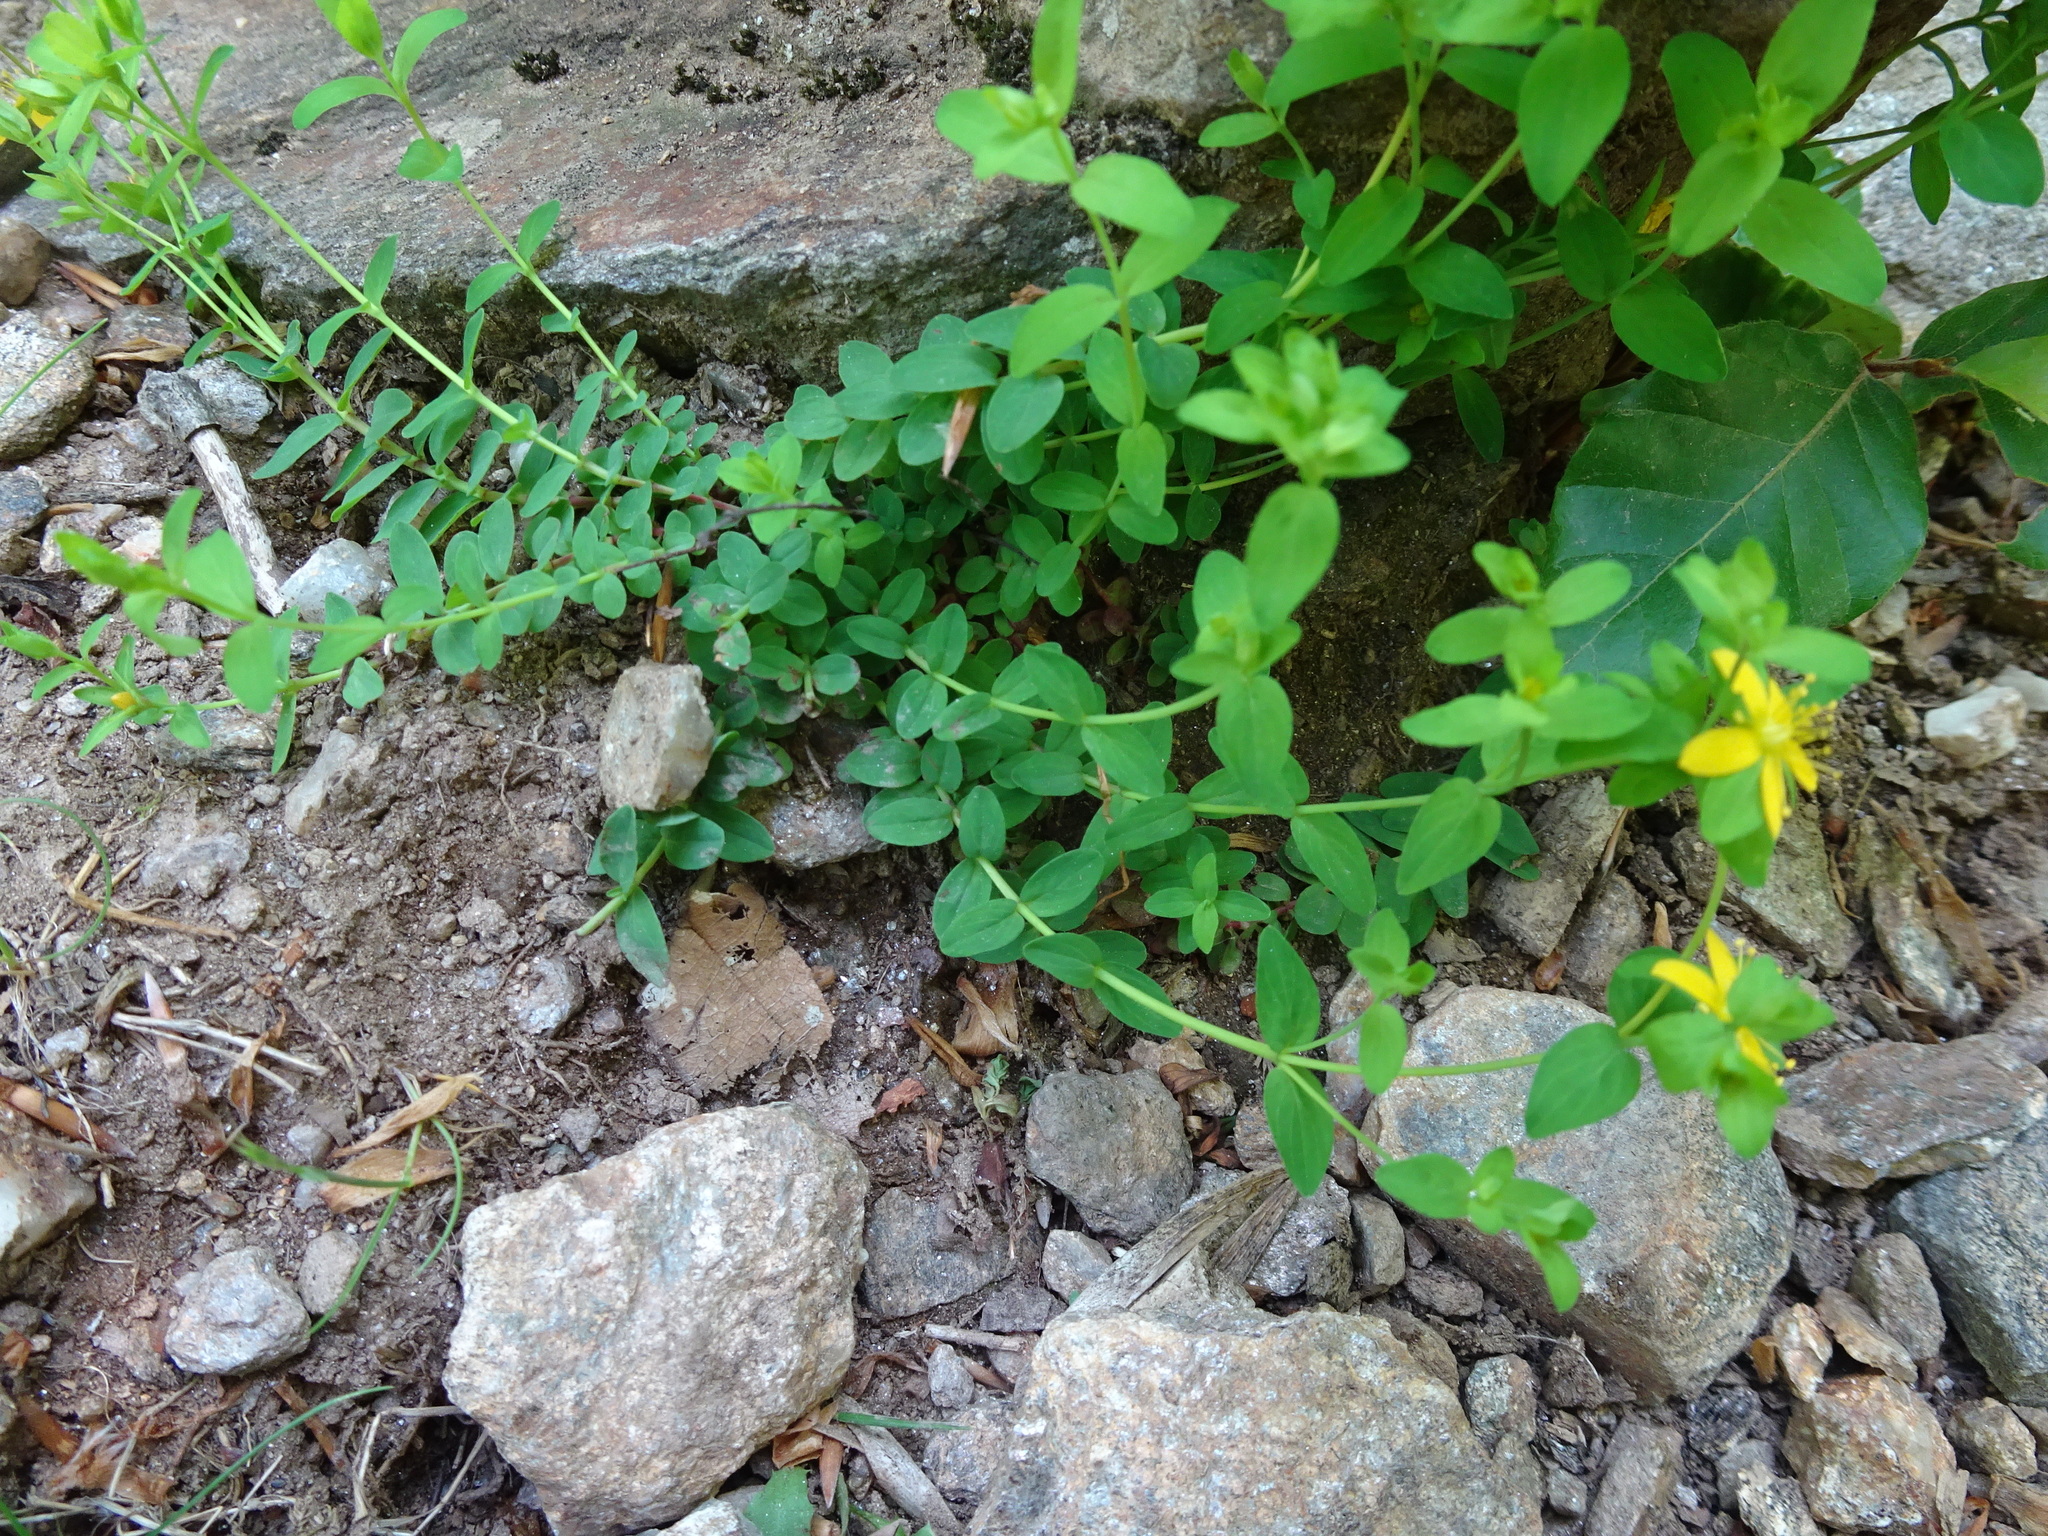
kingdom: Plantae
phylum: Tracheophyta
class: Magnoliopsida
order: Malpighiales
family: Hypericaceae
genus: Hypericum
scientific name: Hypericum humifusum
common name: Trailing st. john's-wort
